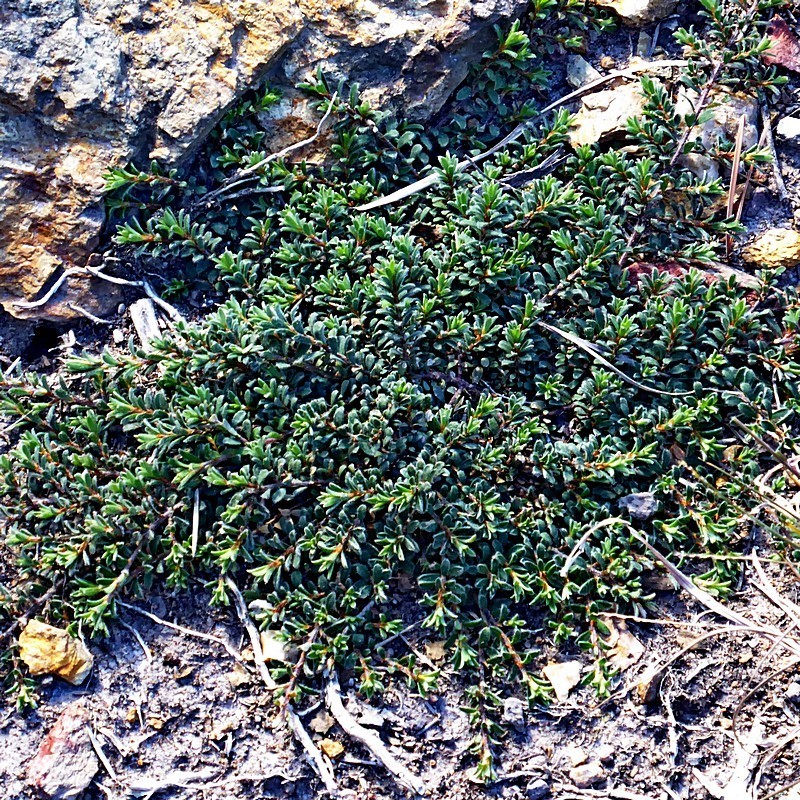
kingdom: Plantae
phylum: Tracheophyta
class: Magnoliopsida
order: Fabales
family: Fabaceae
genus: Pultenaea
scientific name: Pultenaea pedunculata
